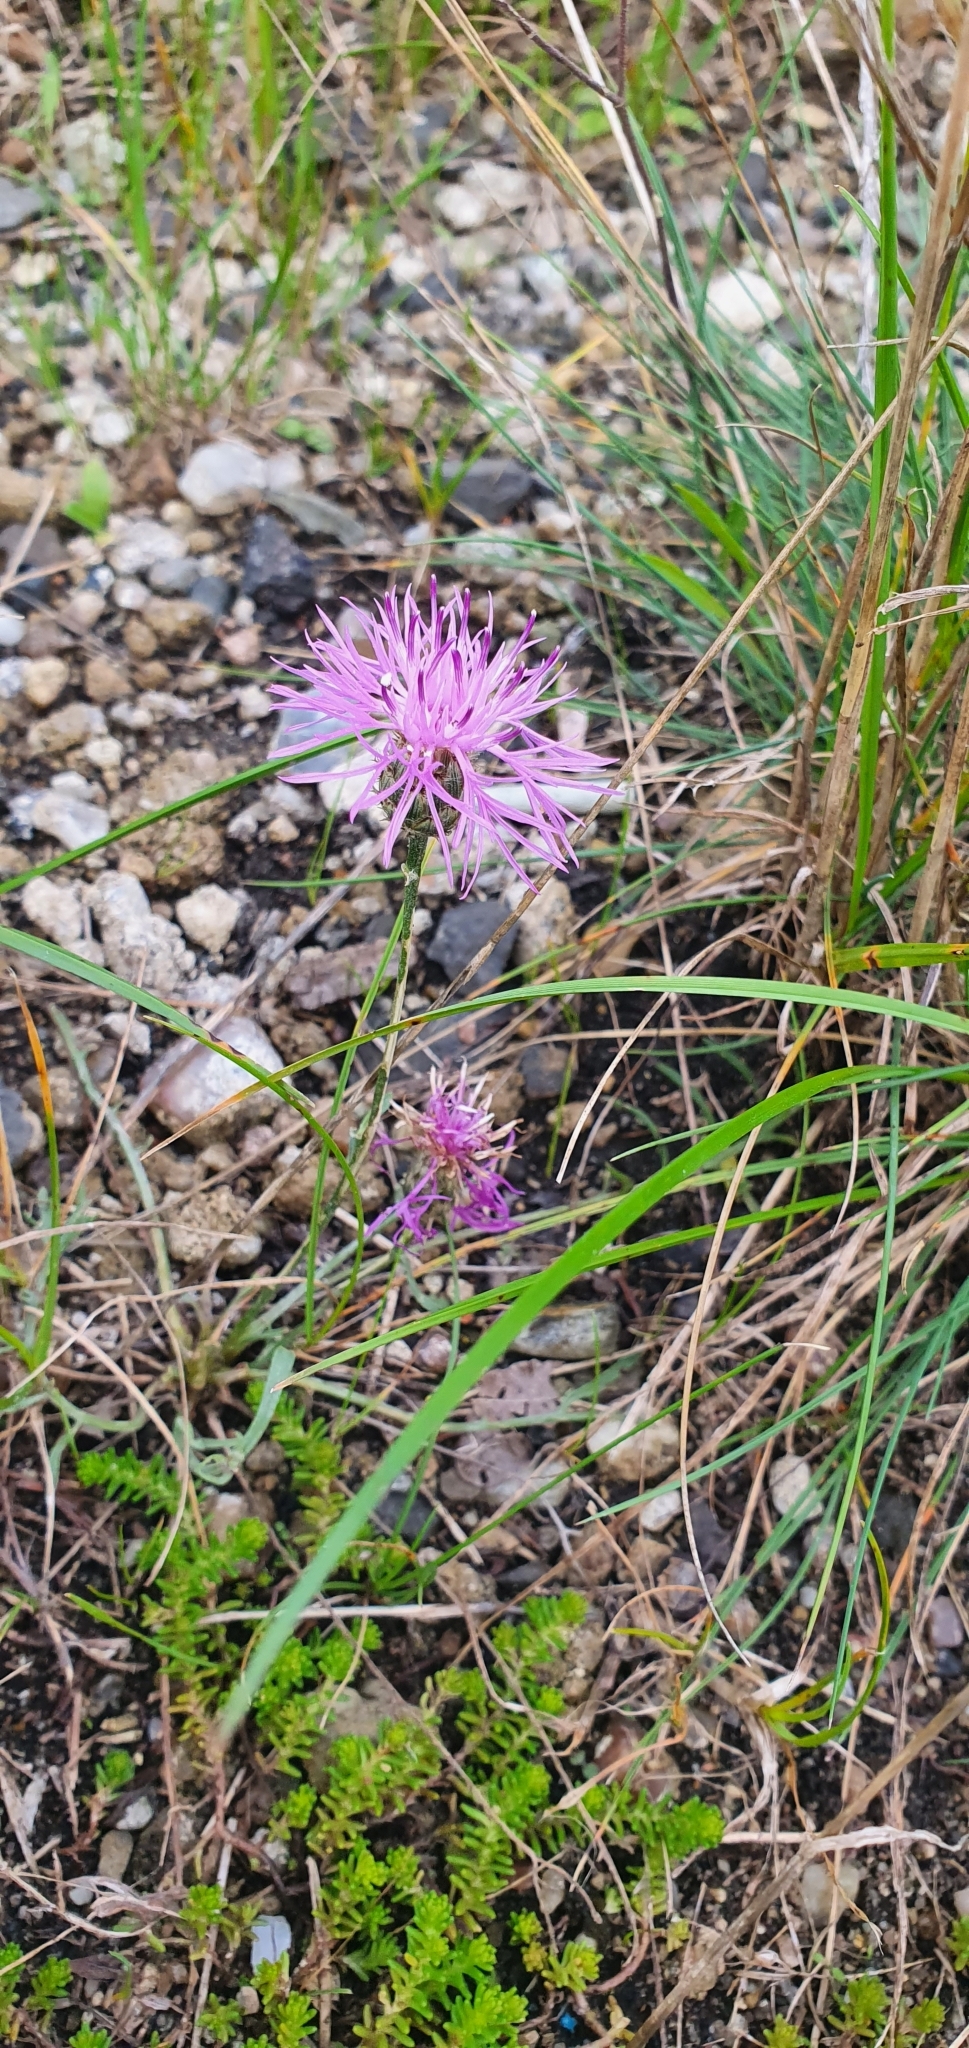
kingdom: Plantae
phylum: Tracheophyta
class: Magnoliopsida
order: Asterales
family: Asteraceae
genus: Centaurea
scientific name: Centaurea stoebe
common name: Spotted knapweed
